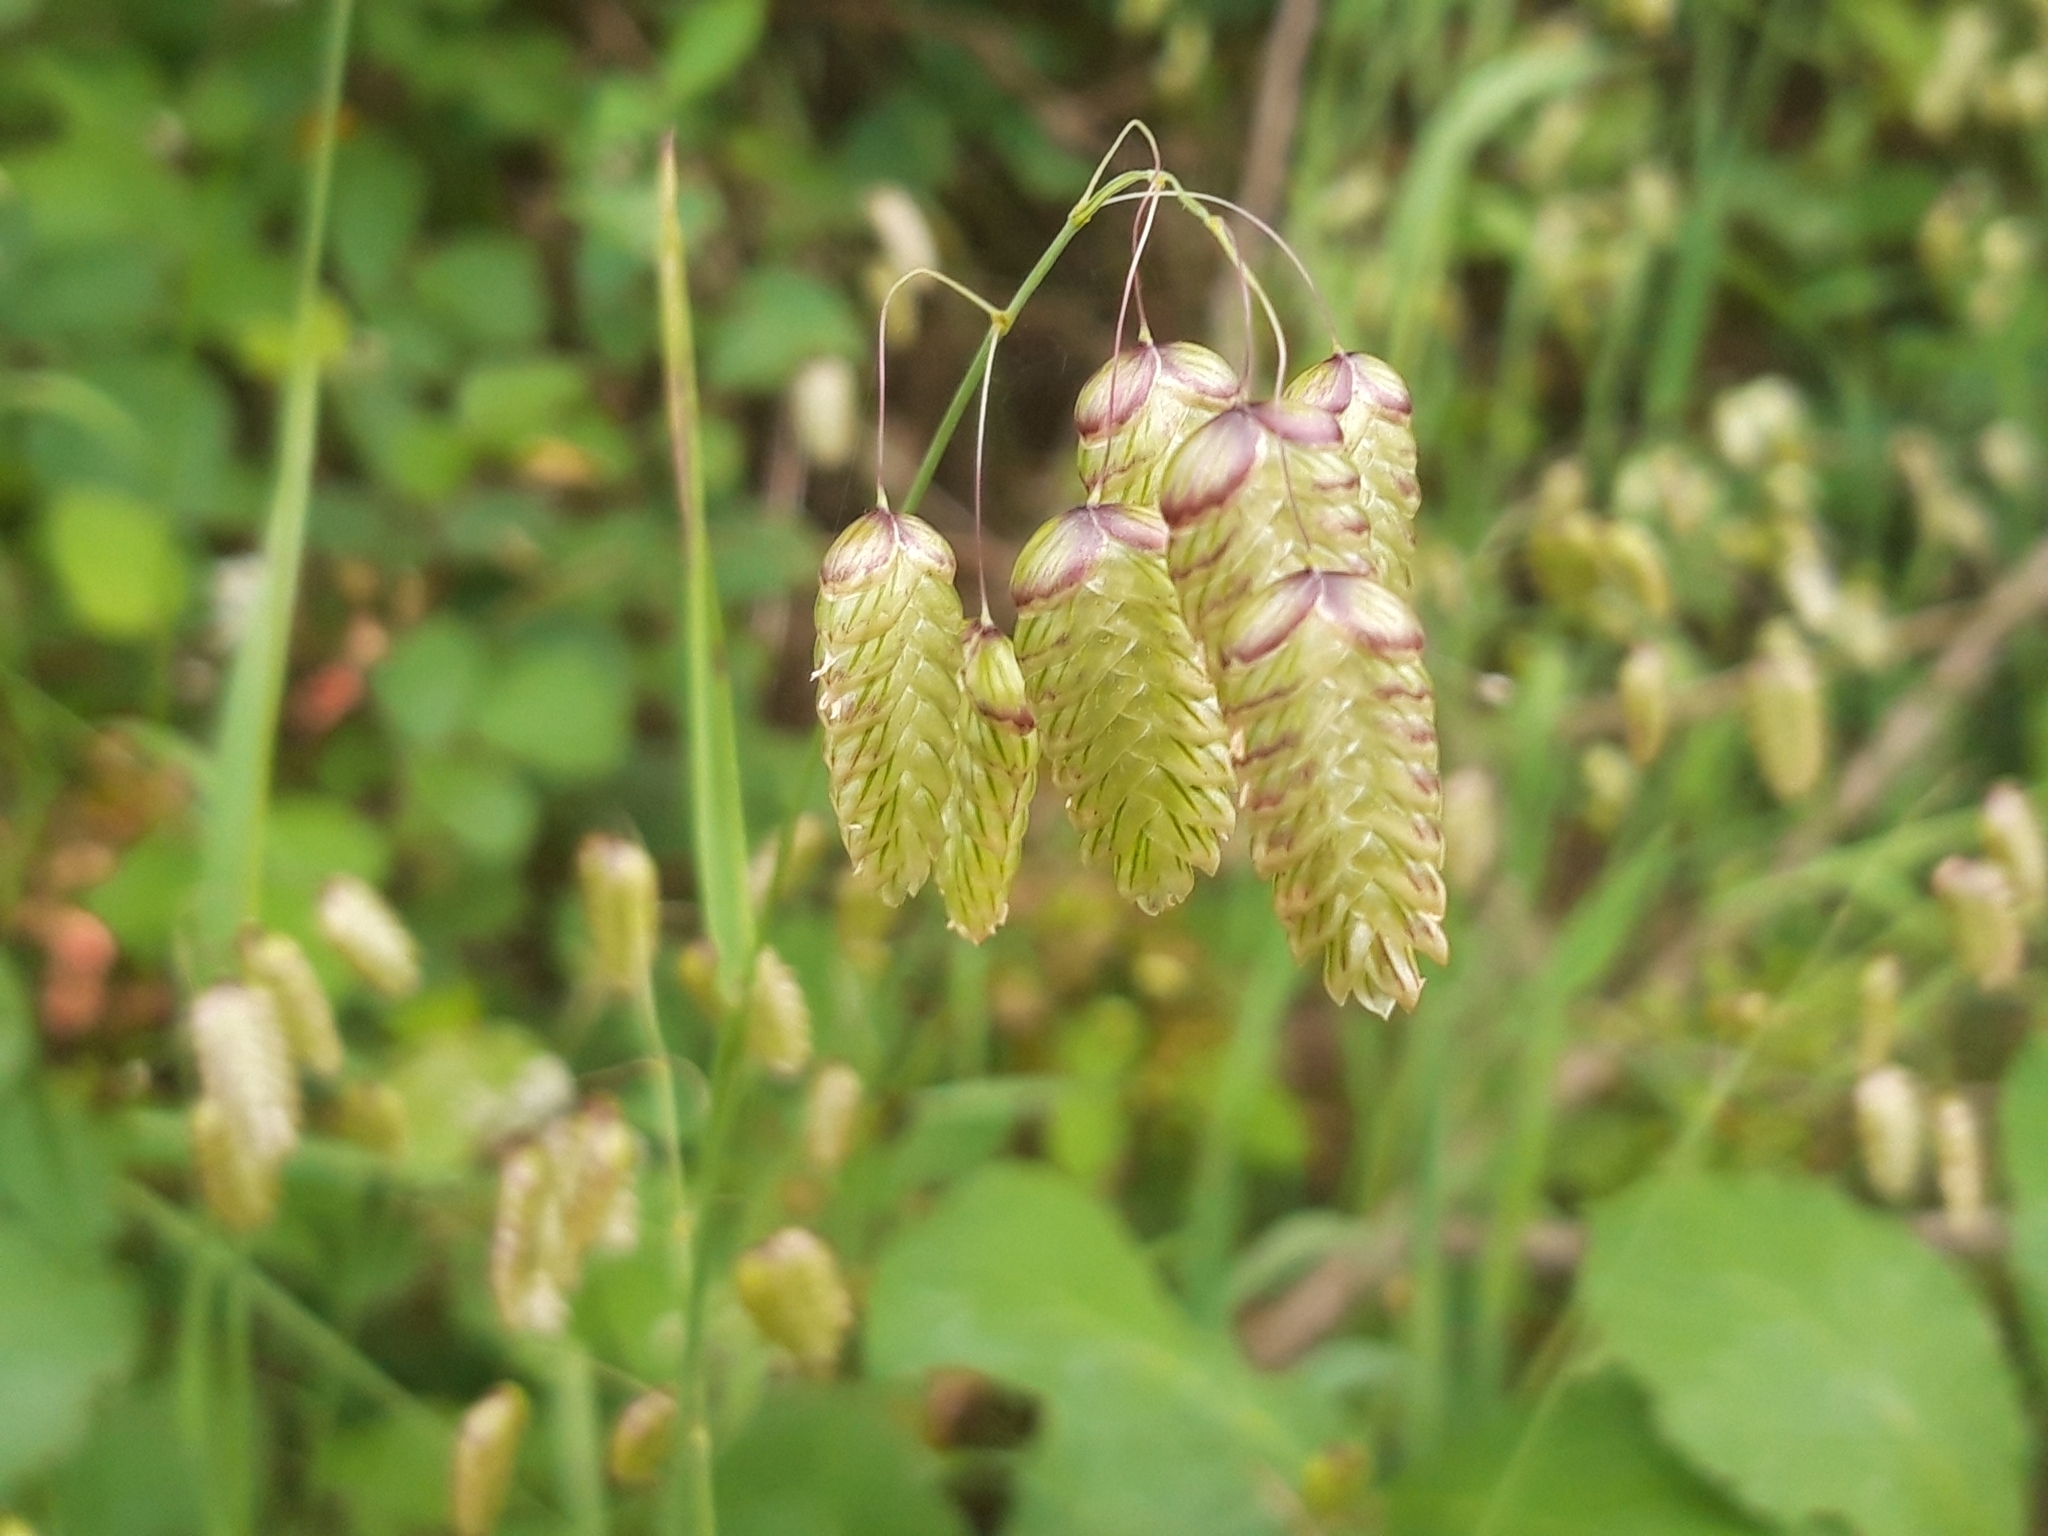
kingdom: Plantae
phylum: Tracheophyta
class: Liliopsida
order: Poales
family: Poaceae
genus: Briza
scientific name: Briza maxima
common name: Big quakinggrass
